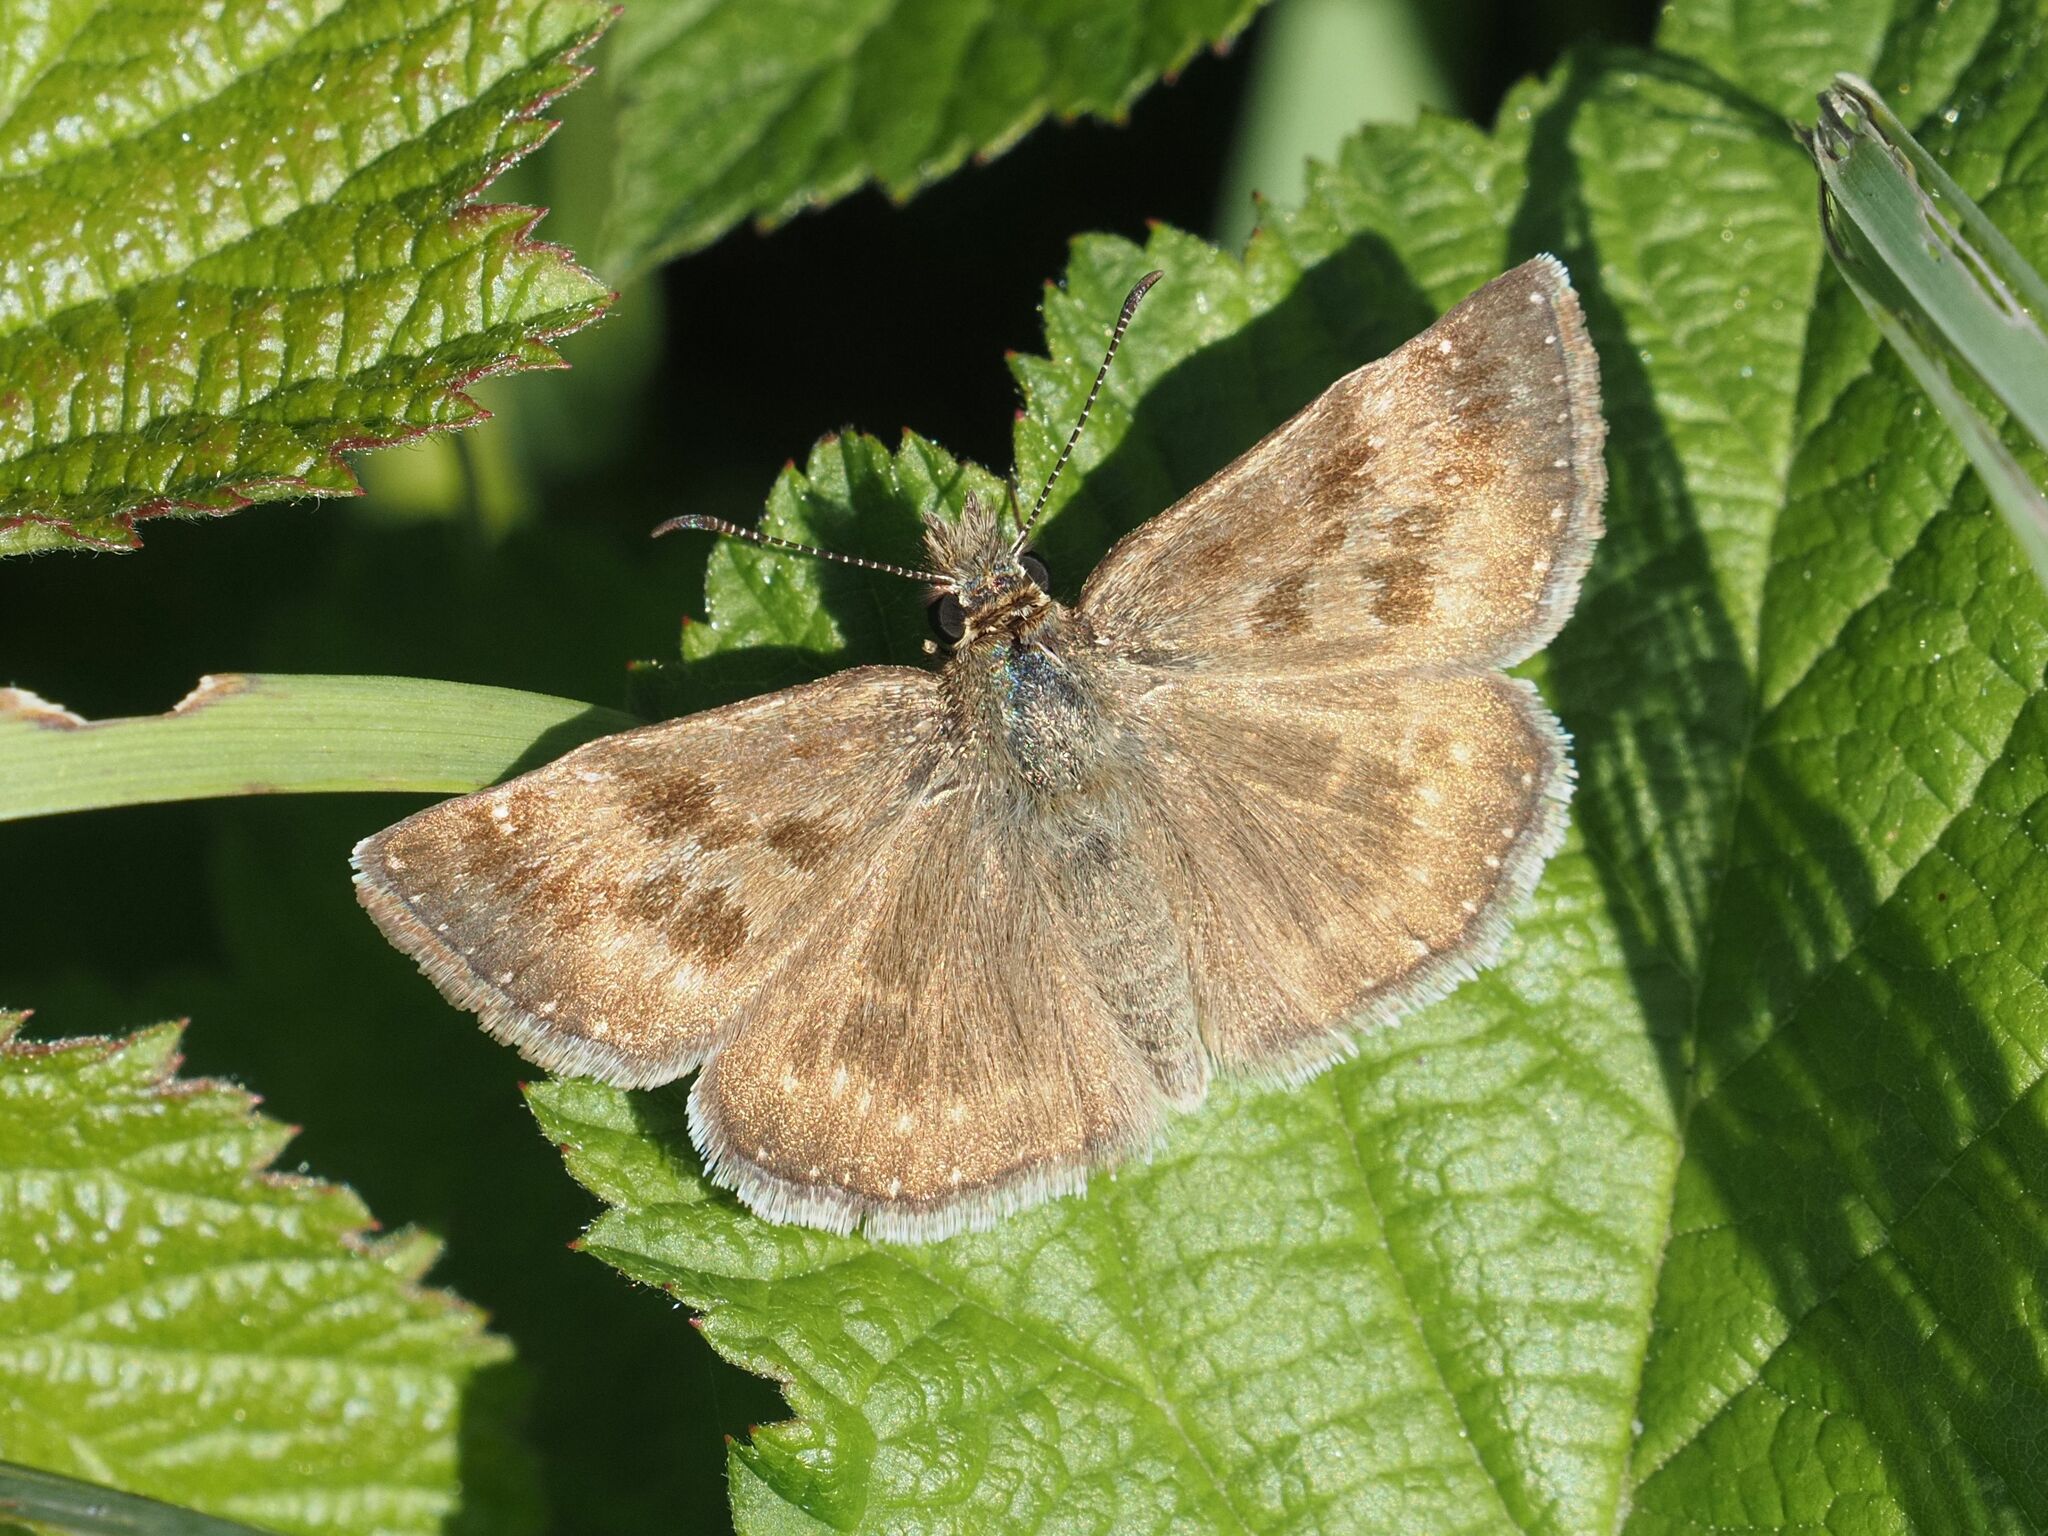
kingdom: Animalia
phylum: Arthropoda
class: Insecta
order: Lepidoptera
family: Hesperiidae
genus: Erynnis
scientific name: Erynnis tages
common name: Dingy skipper
